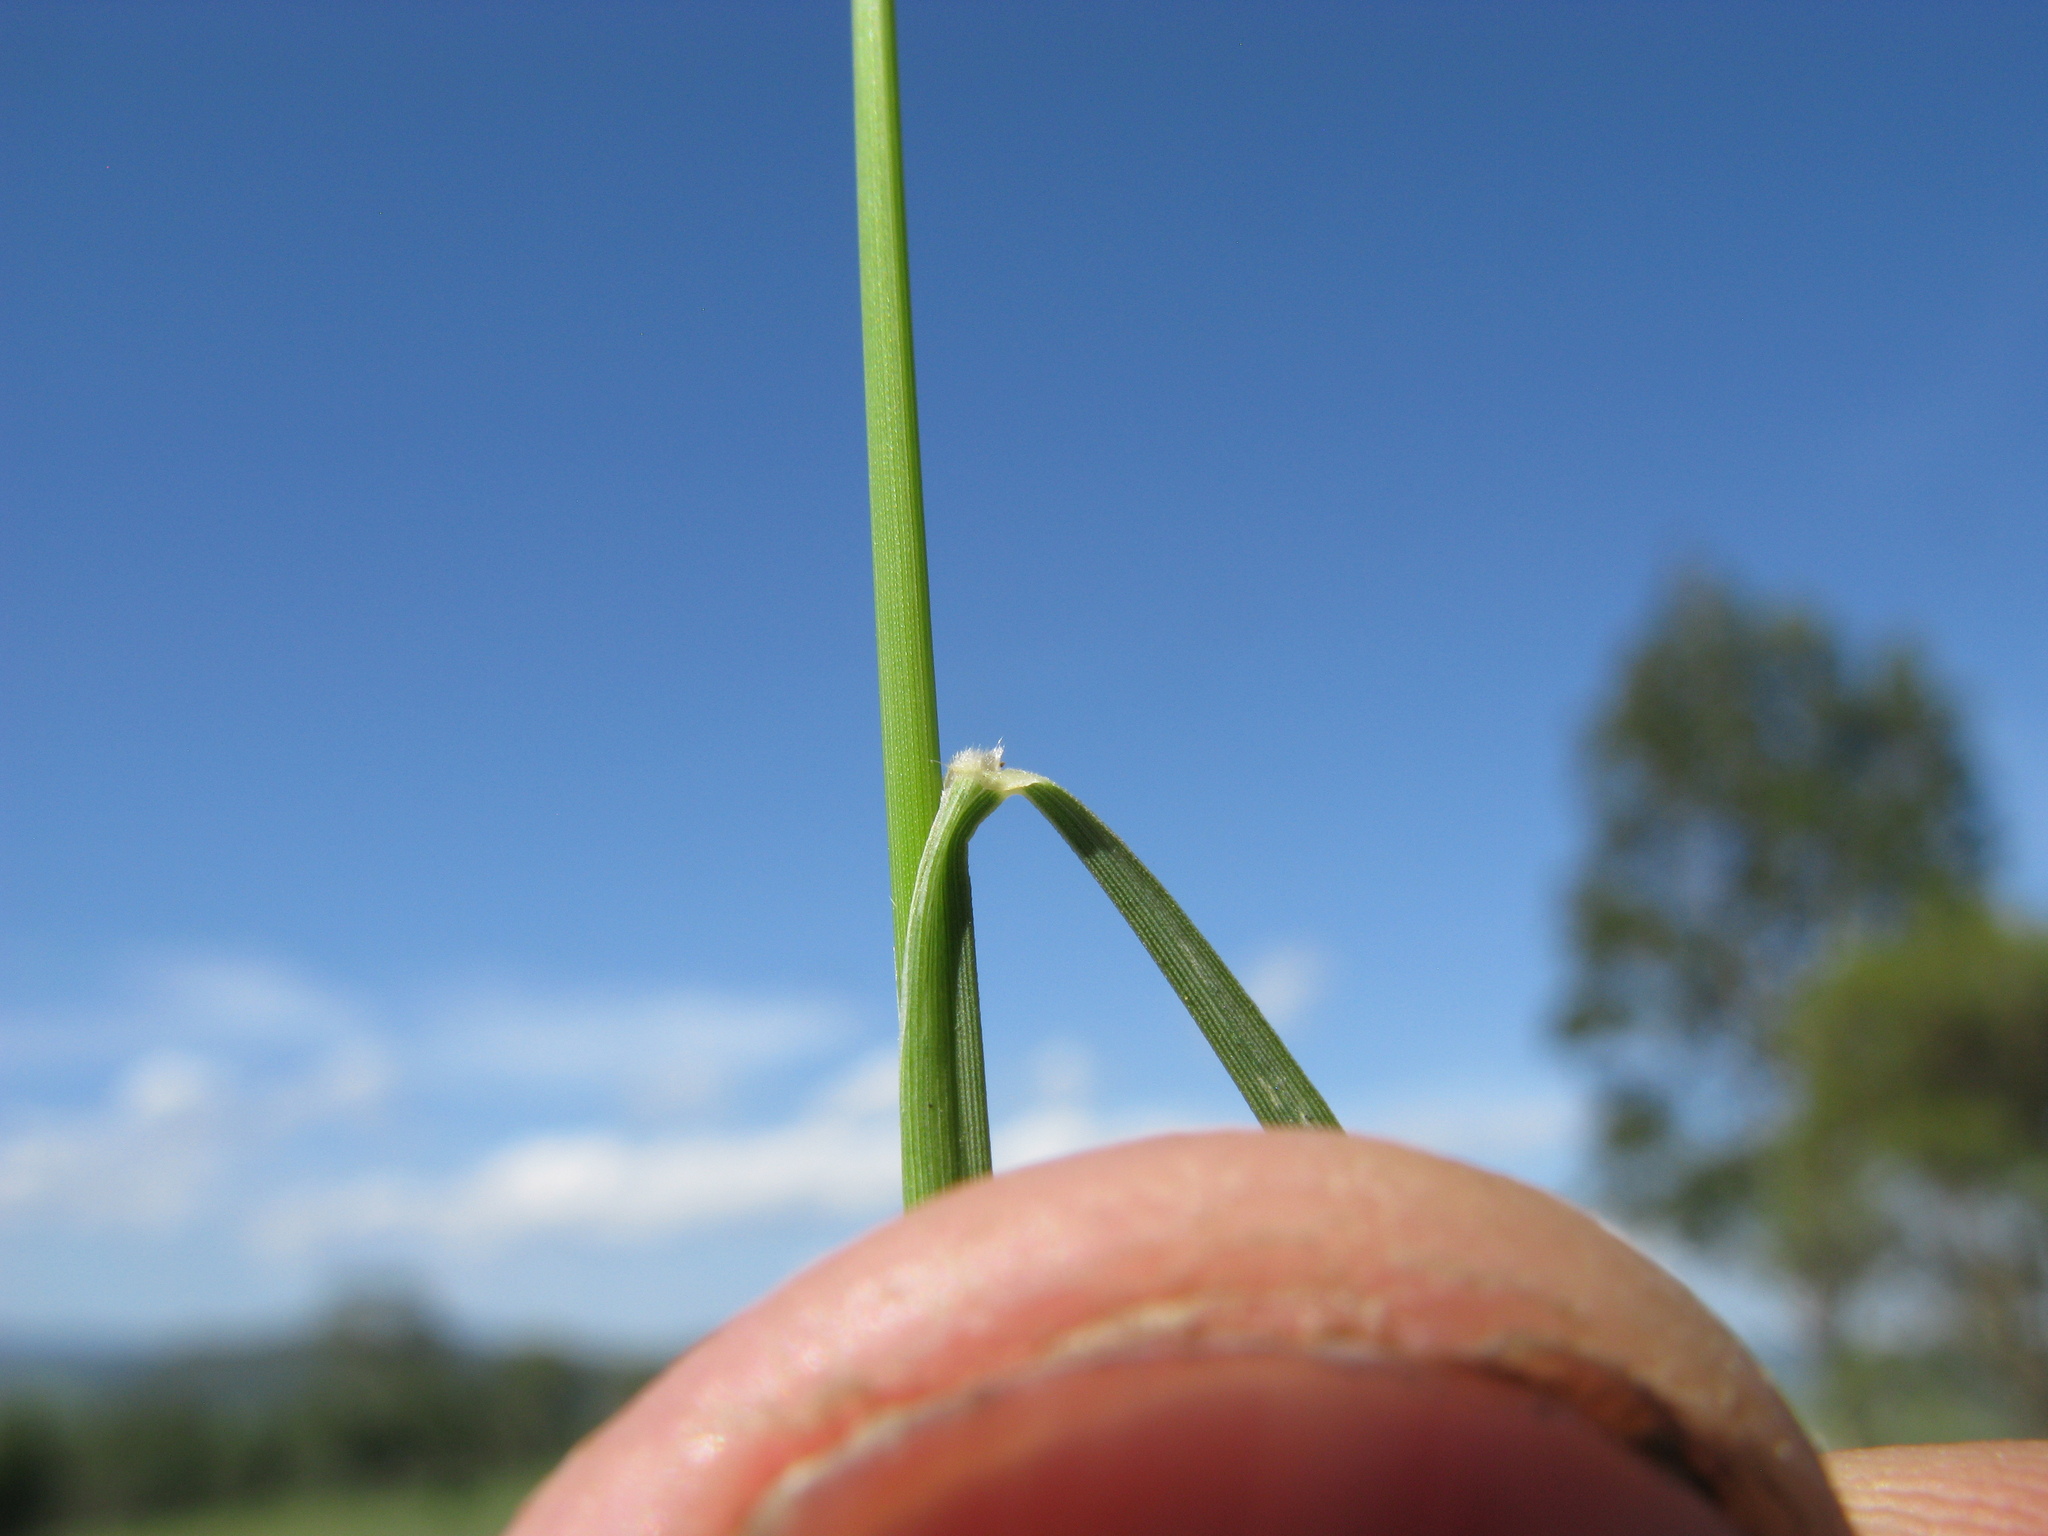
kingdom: Plantae
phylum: Tracheophyta
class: Liliopsida
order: Poales
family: Poaceae
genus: Chloris
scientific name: Chloris ventricosa
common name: Australian windmill grass
